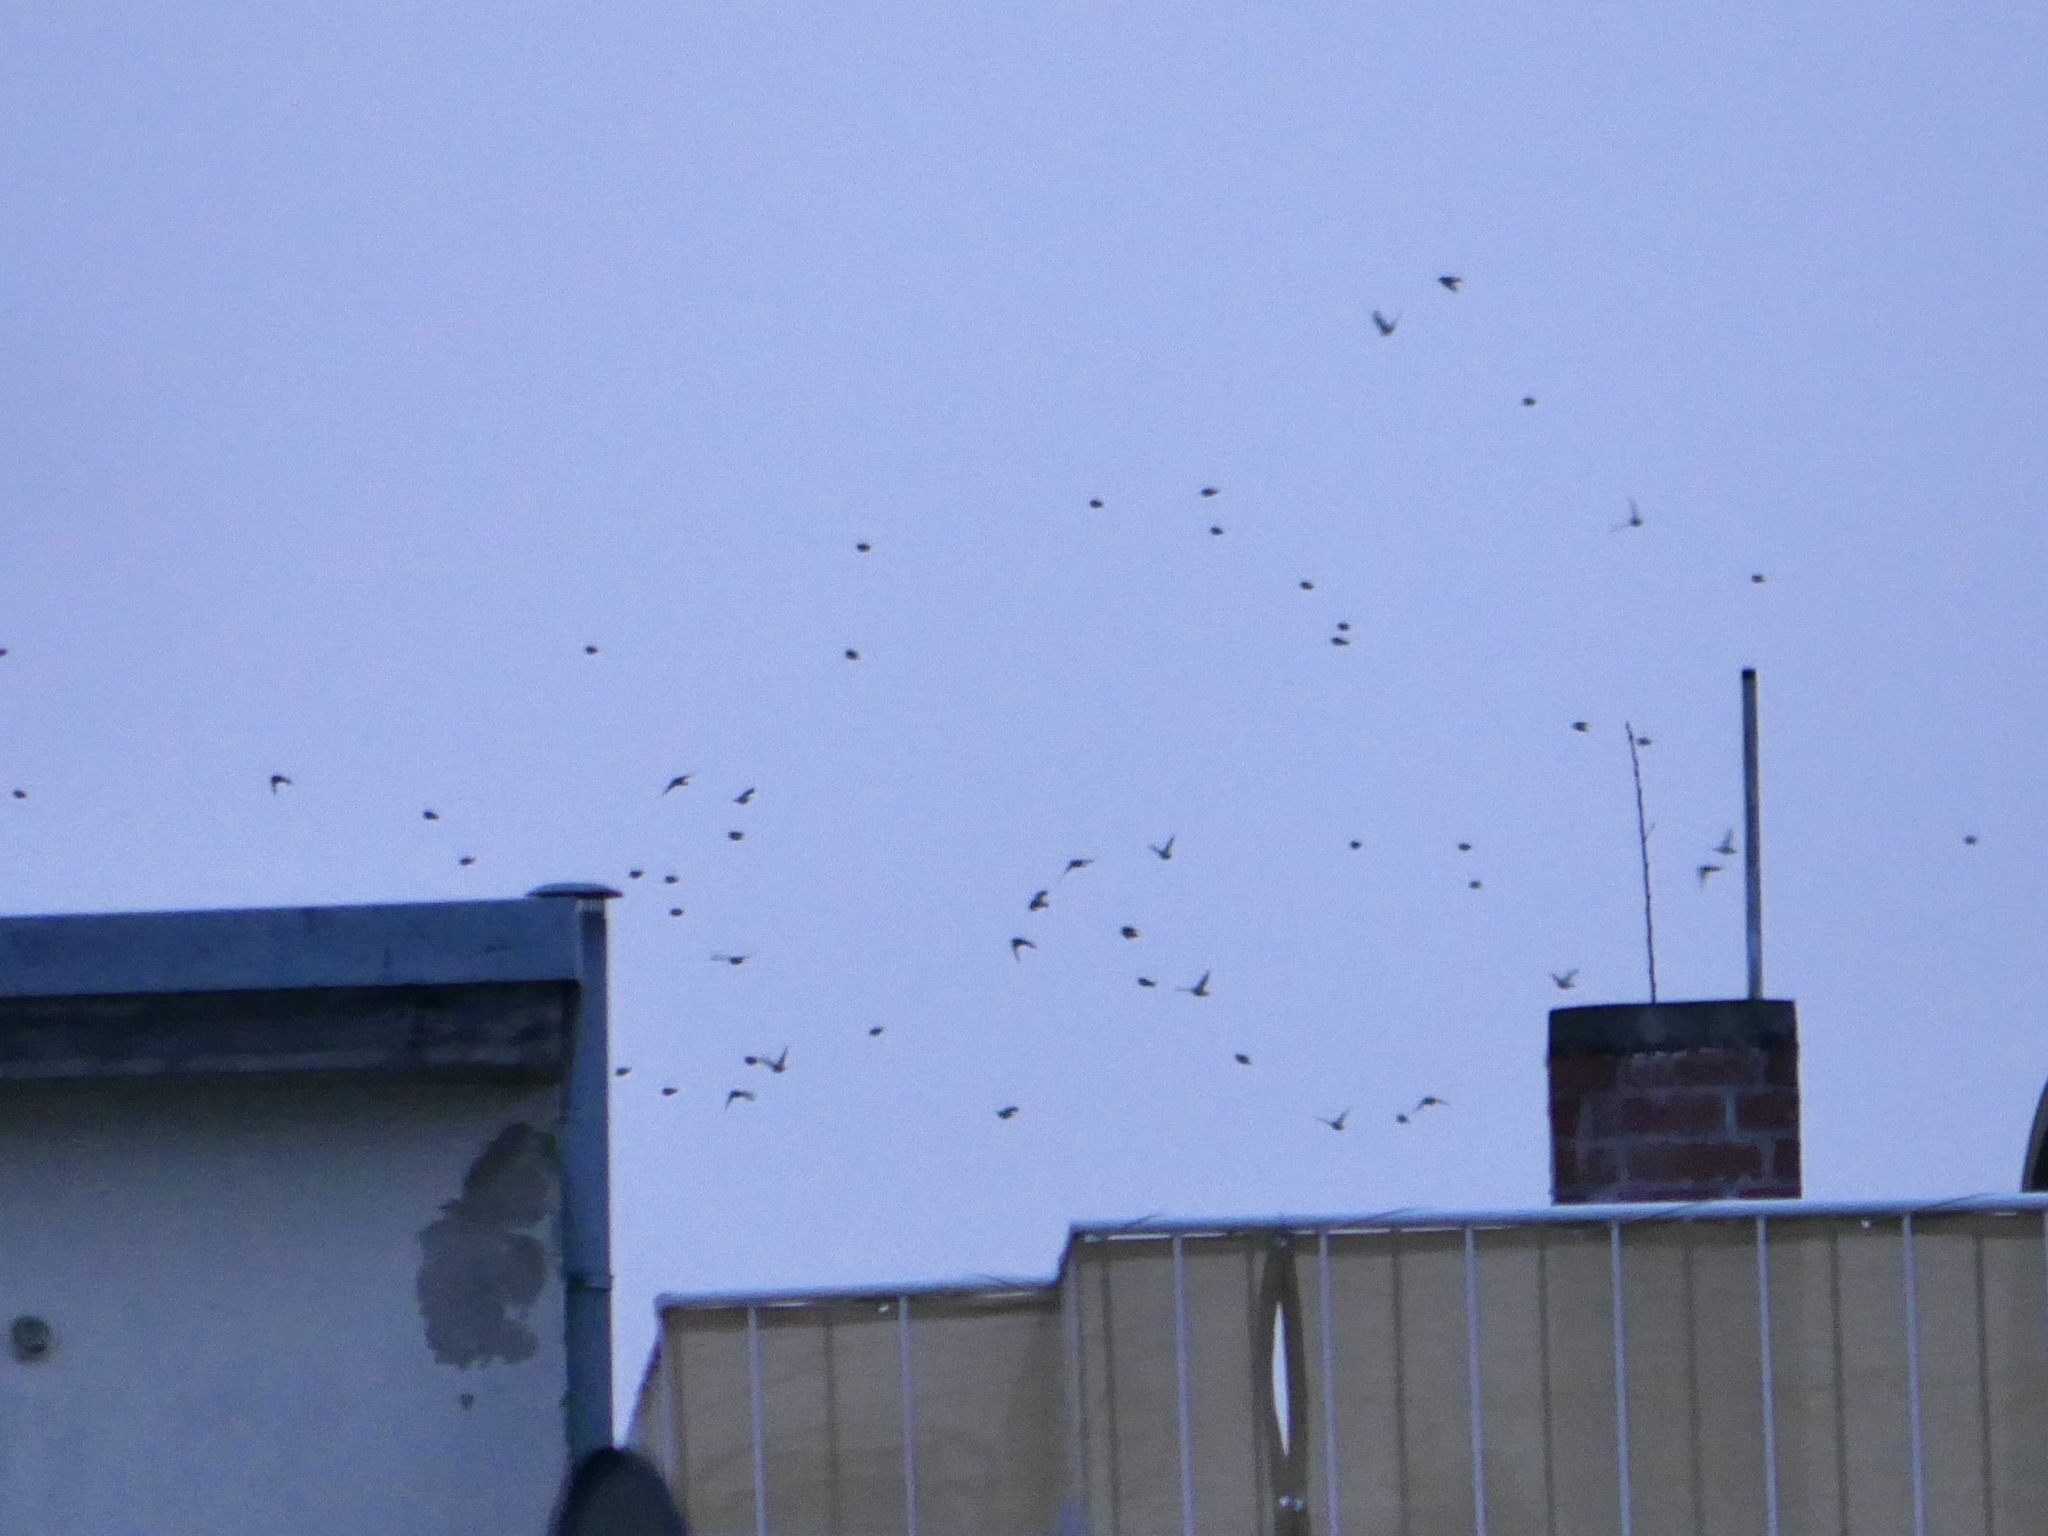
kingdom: Animalia
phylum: Chordata
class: Aves
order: Passeriformes
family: Sturnidae
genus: Sturnus
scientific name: Sturnus vulgaris
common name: Common starling
